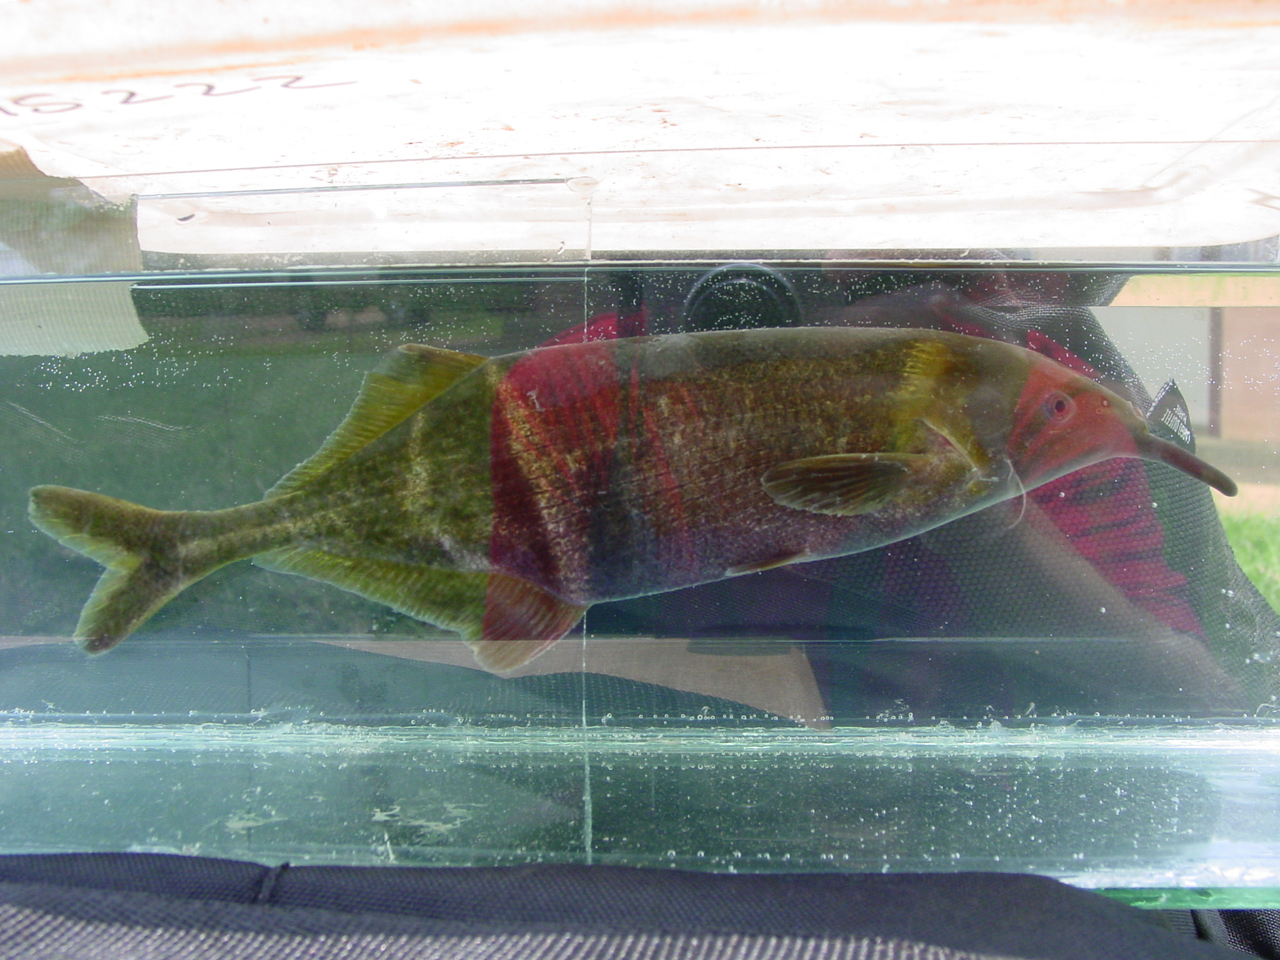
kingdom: Animalia
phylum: Chordata
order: Osteoglossiformes
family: Mormyridae
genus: Gnathonemus
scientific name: Gnathonemus petersii
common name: Elephantnose fish
